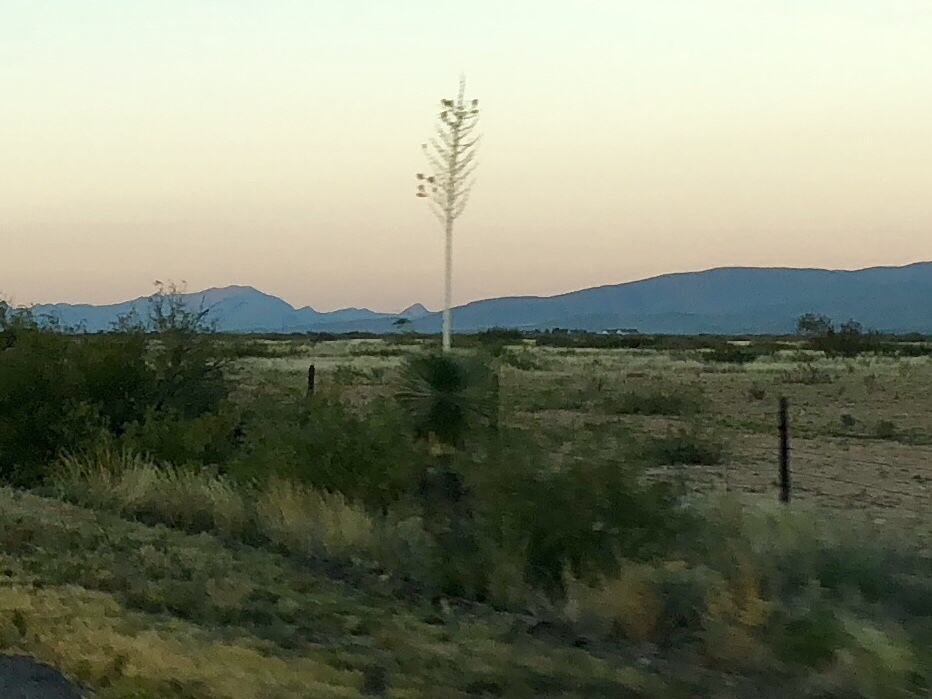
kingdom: Plantae
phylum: Tracheophyta
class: Liliopsida
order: Asparagales
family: Asparagaceae
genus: Yucca
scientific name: Yucca elata
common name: Palmella
